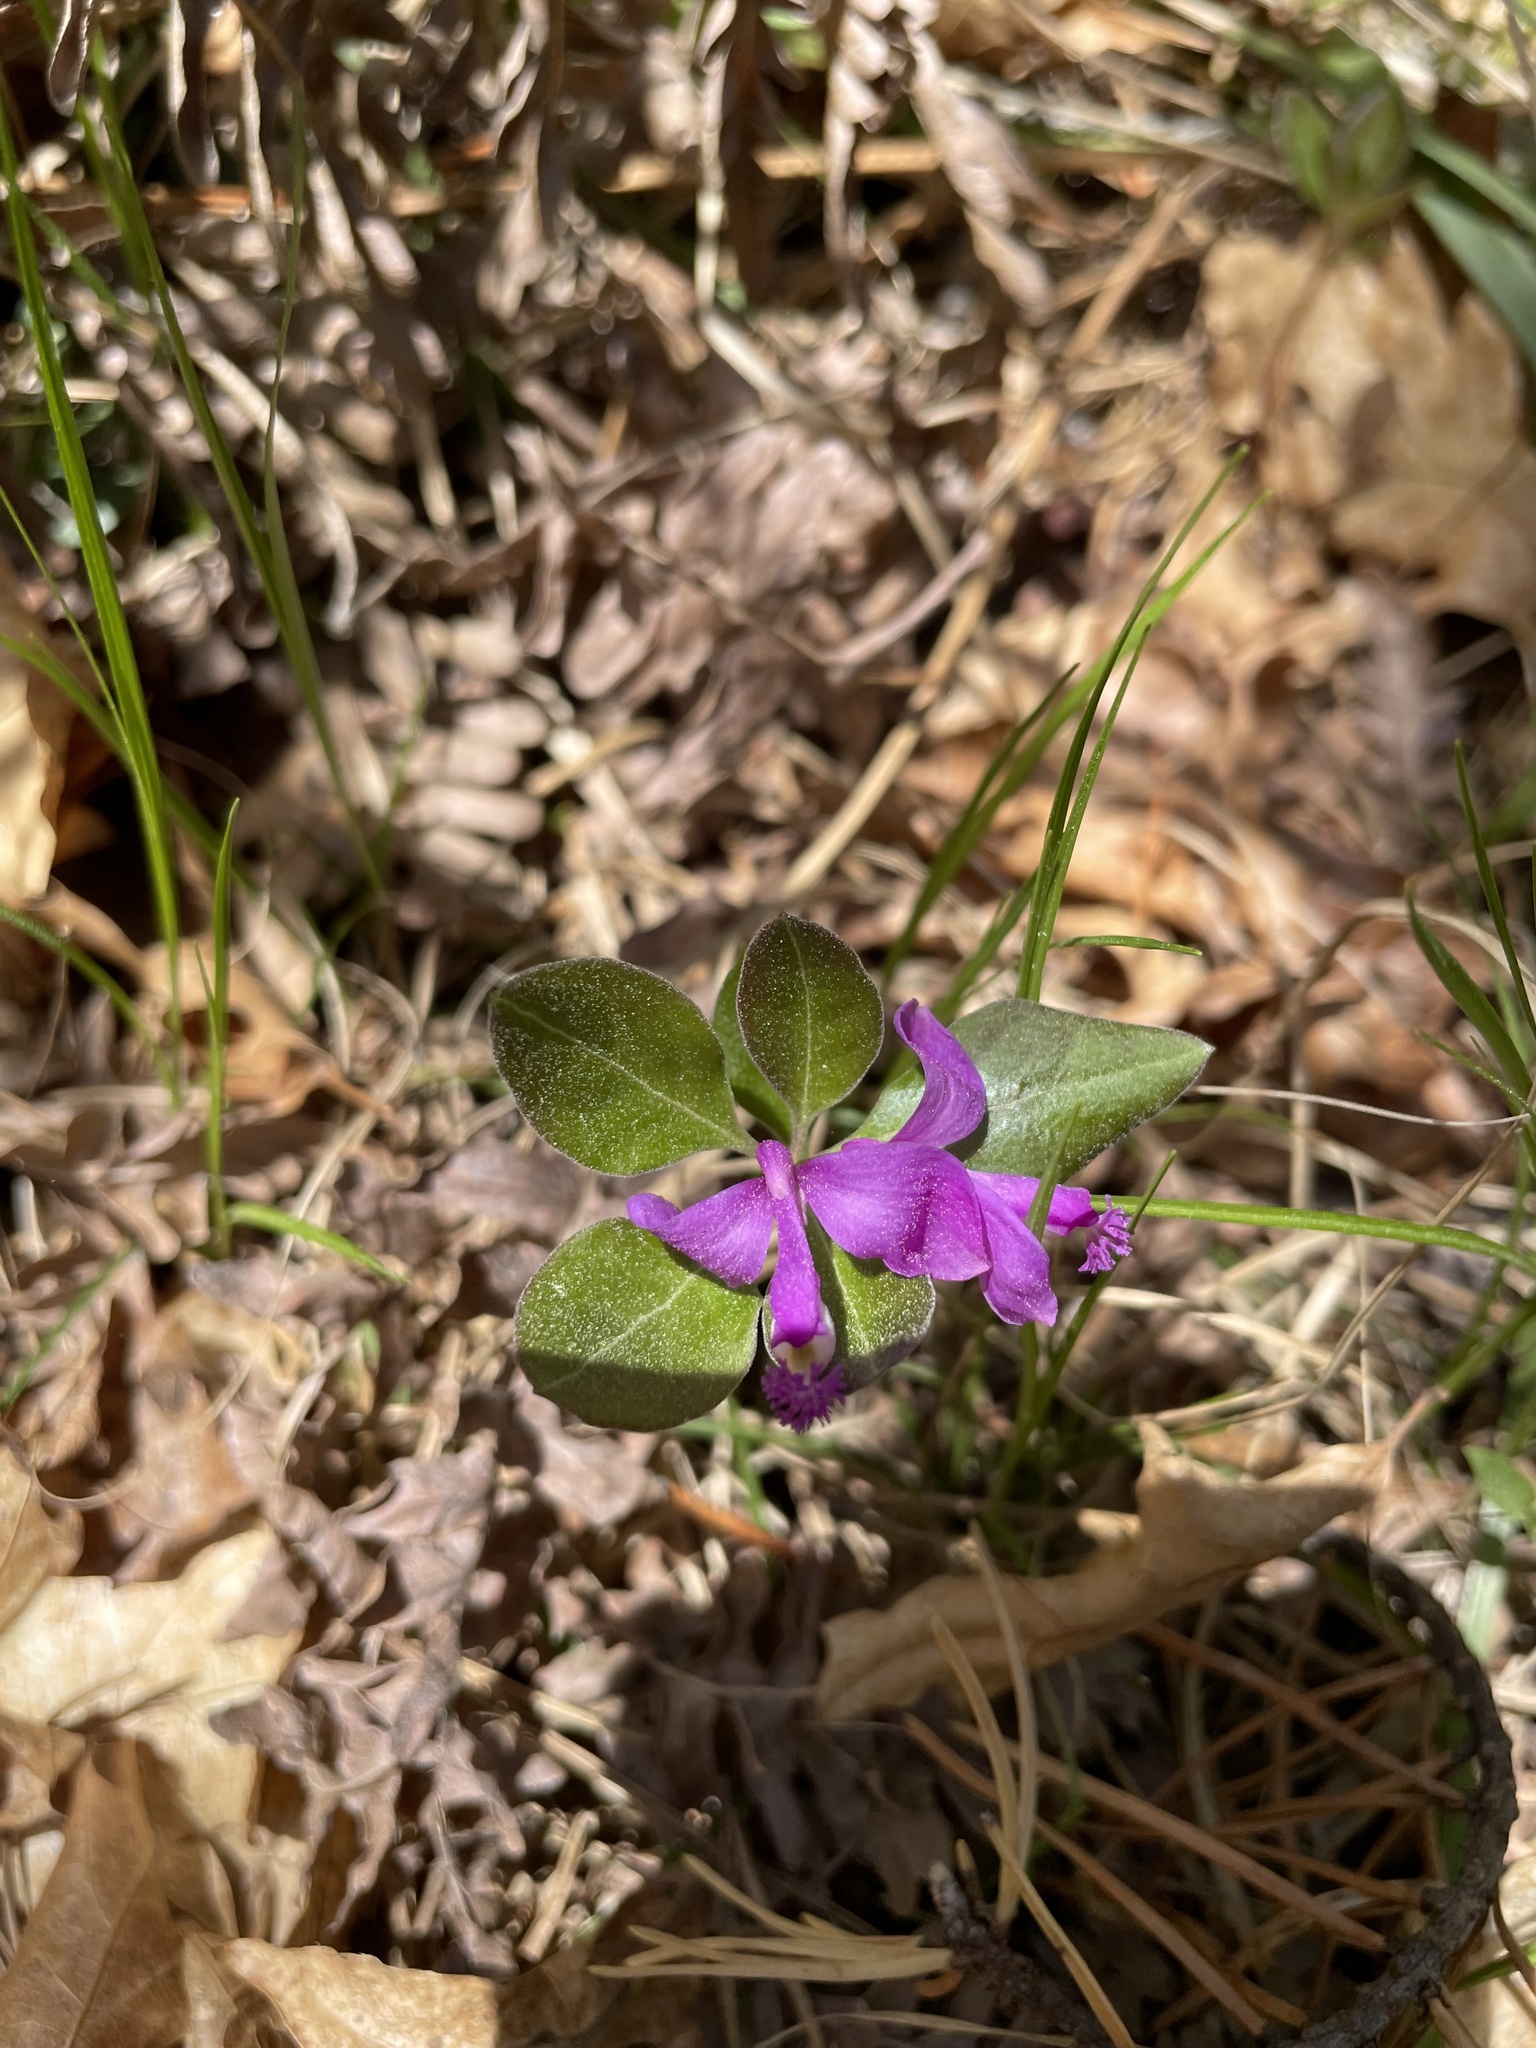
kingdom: Plantae
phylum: Tracheophyta
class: Magnoliopsida
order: Fabales
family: Polygalaceae
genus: Polygaloides
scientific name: Polygaloides paucifolia
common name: Bird-on-the-wing
